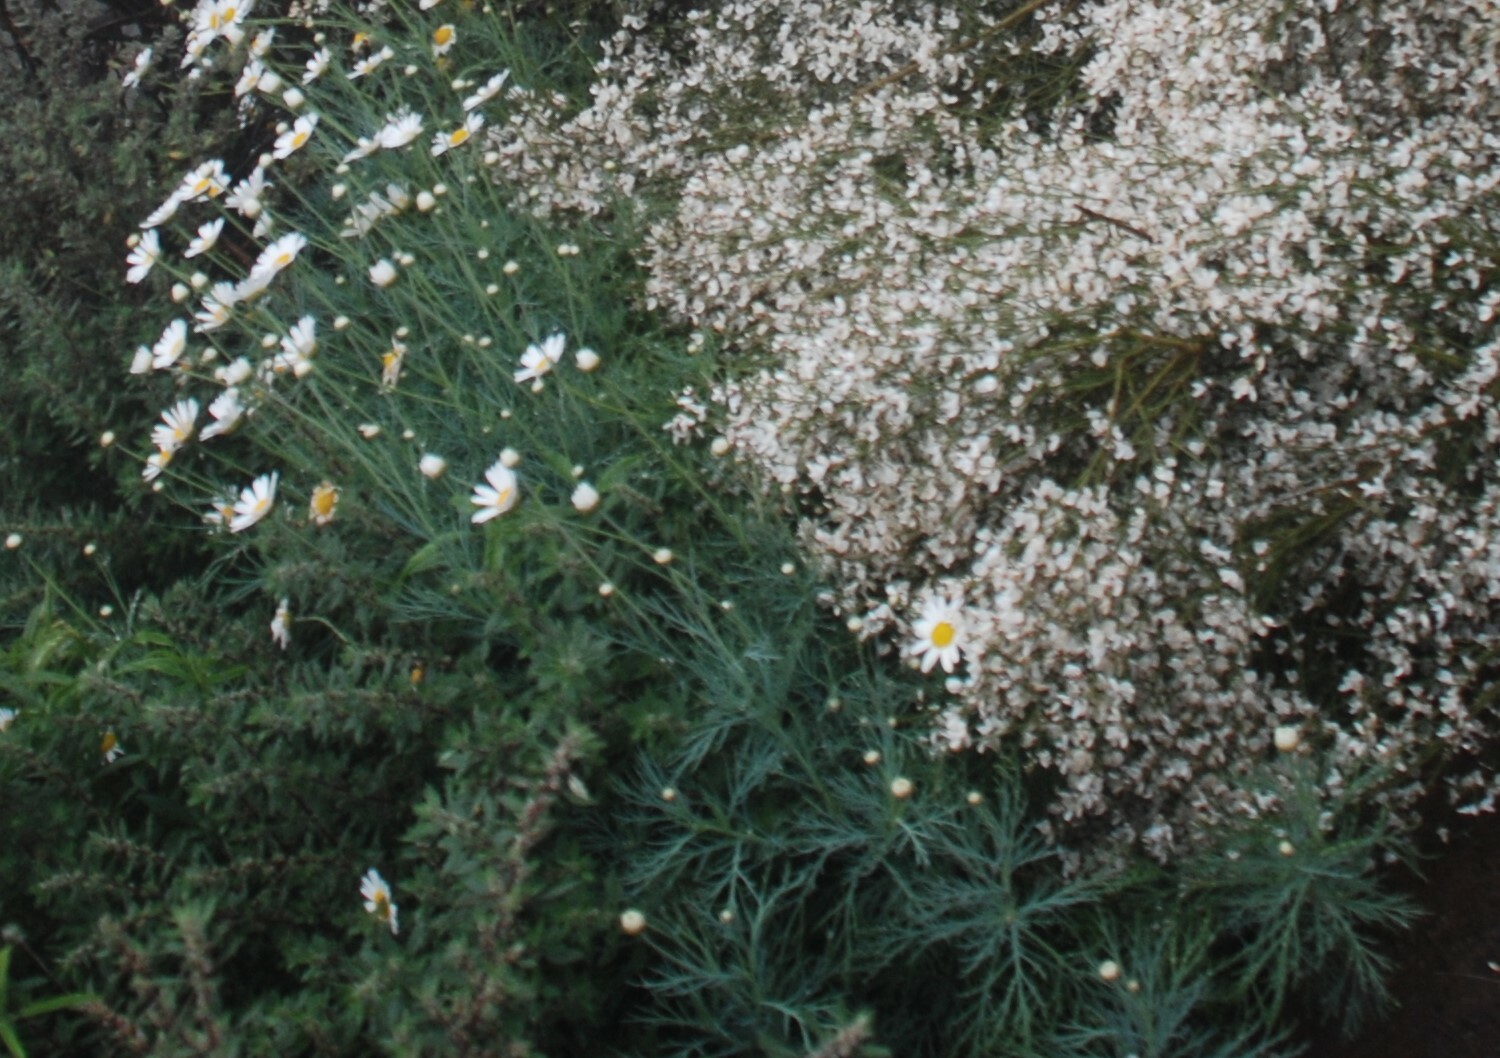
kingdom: Plantae
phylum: Tracheophyta
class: Magnoliopsida
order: Asterales
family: Asteraceae
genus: Argyranthemum
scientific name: Argyranthemum foeniculaceum
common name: Canary island marguerite
